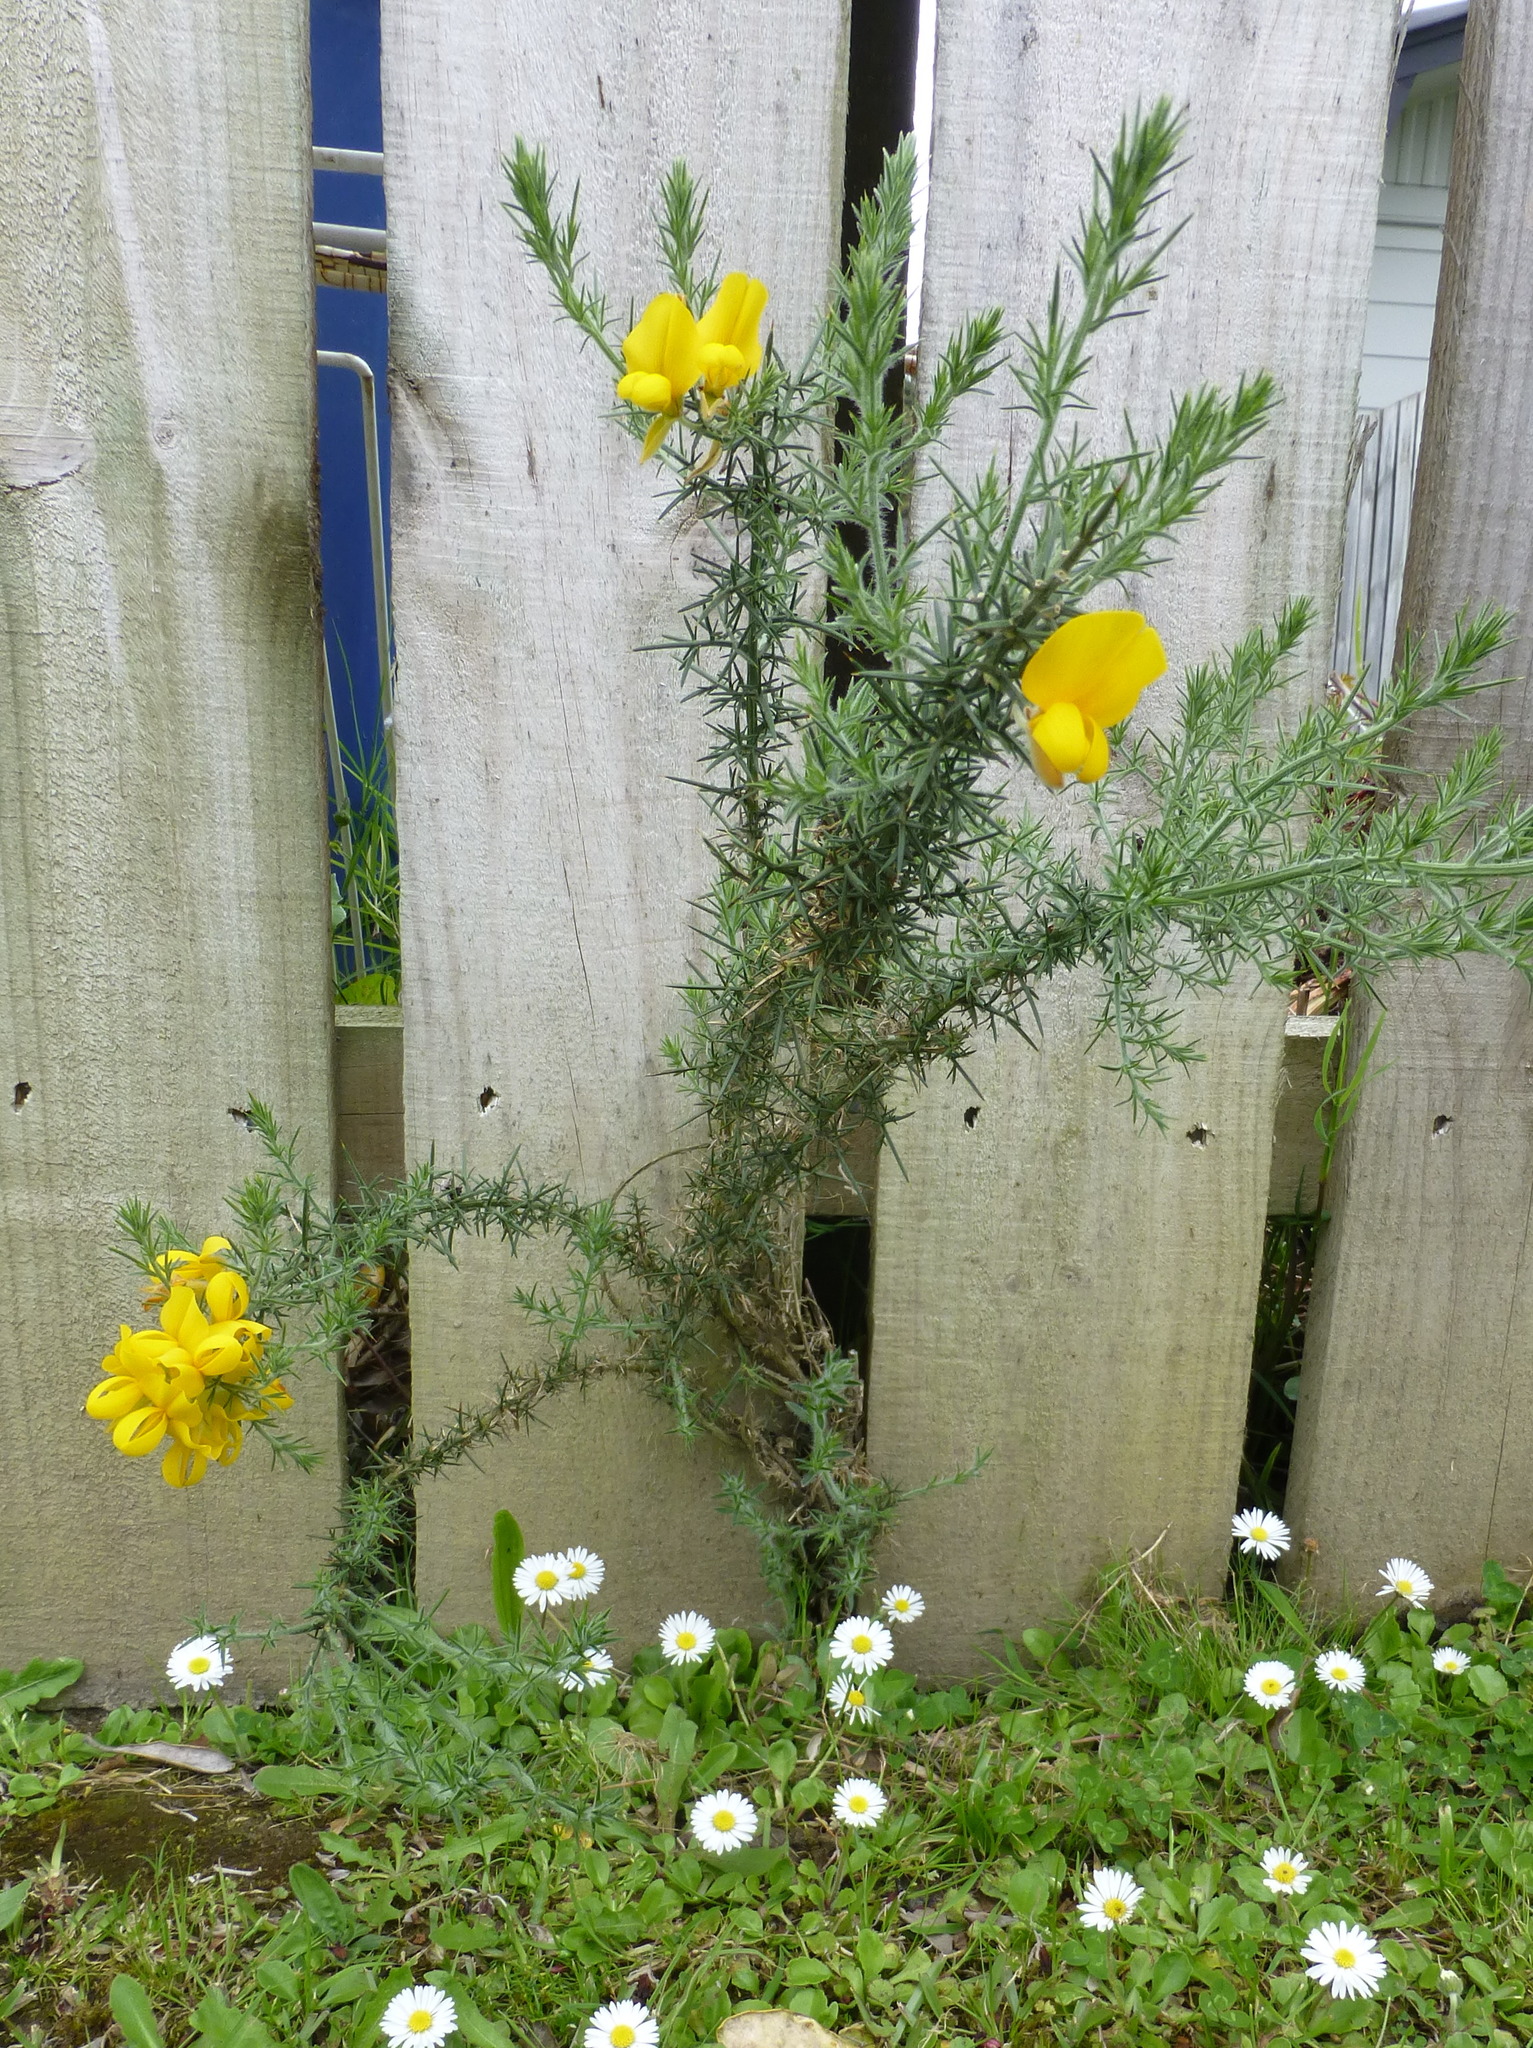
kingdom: Plantae
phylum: Tracheophyta
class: Magnoliopsida
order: Fabales
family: Fabaceae
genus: Ulex
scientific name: Ulex europaeus
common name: Common gorse
